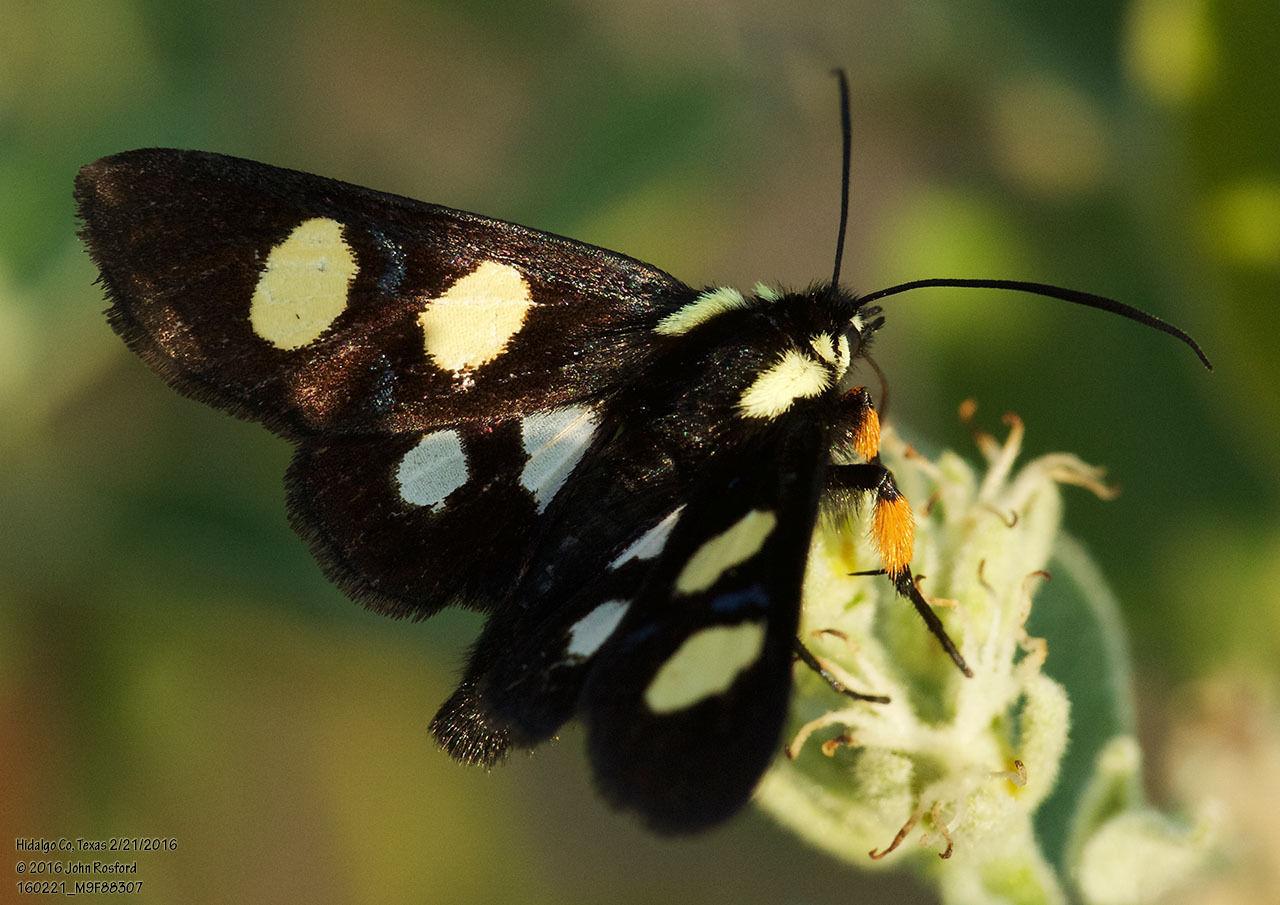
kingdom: Animalia
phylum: Arthropoda
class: Insecta
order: Lepidoptera
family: Noctuidae
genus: Alypia
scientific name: Alypia disparata
